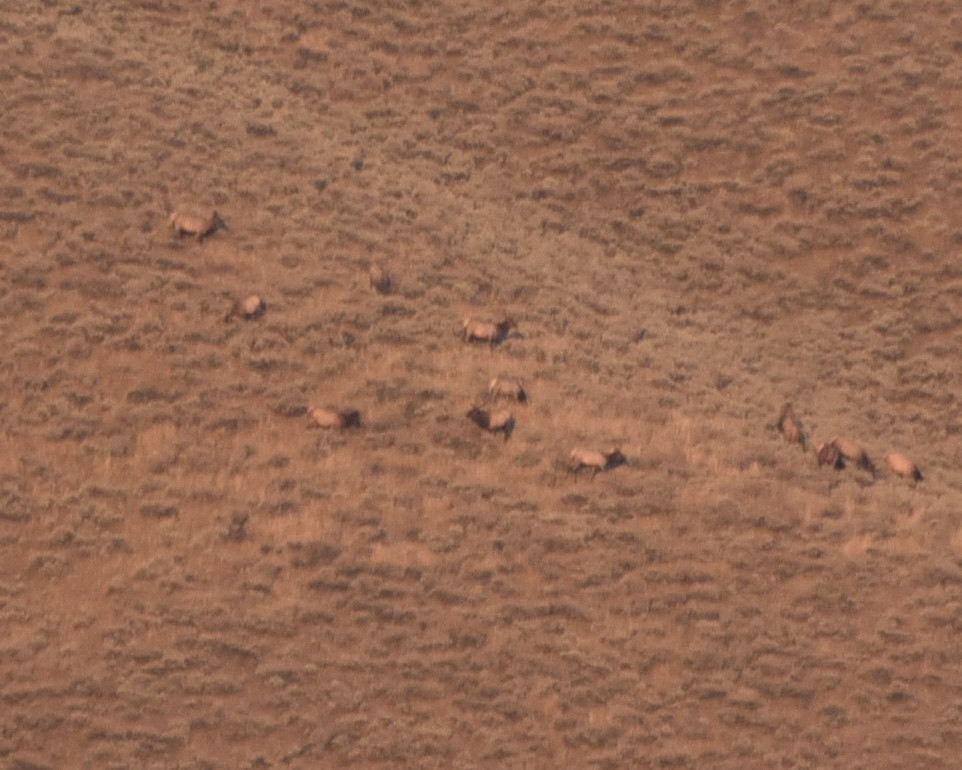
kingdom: Animalia
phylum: Chordata
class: Mammalia
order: Artiodactyla
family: Cervidae
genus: Cervus
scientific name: Cervus elaphus
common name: Red deer
